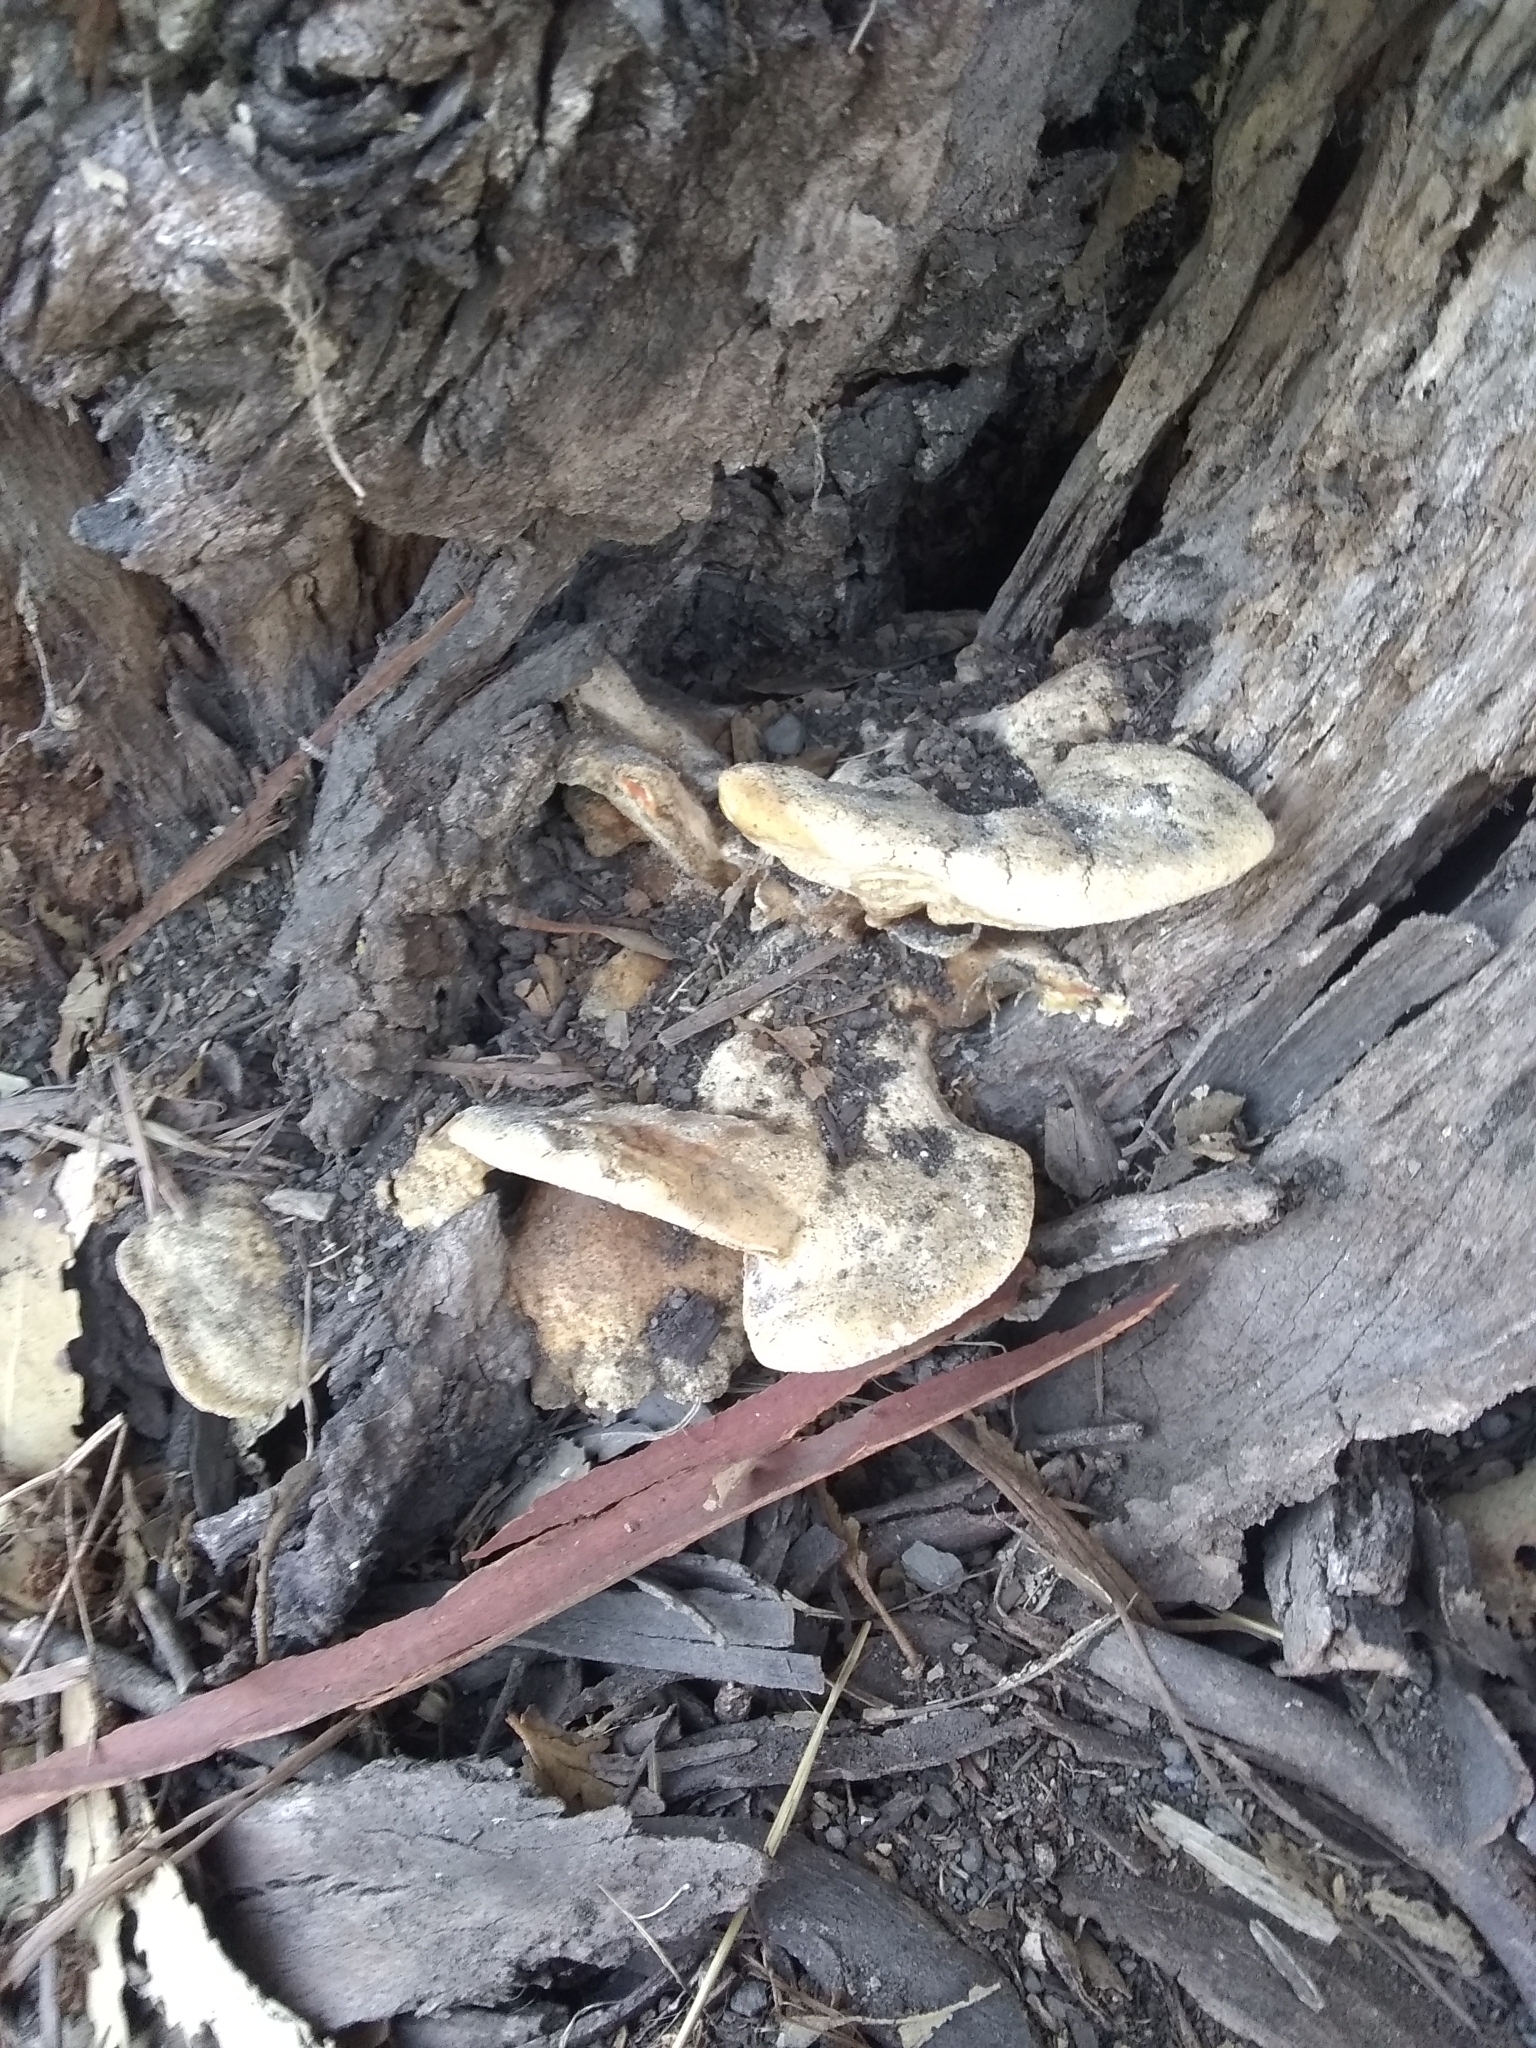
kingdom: Fungi
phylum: Basidiomycota
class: Agaricomycetes
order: Polyporales
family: Laetiporaceae
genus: Laetiporus
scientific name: Laetiporus gilbertsonii
